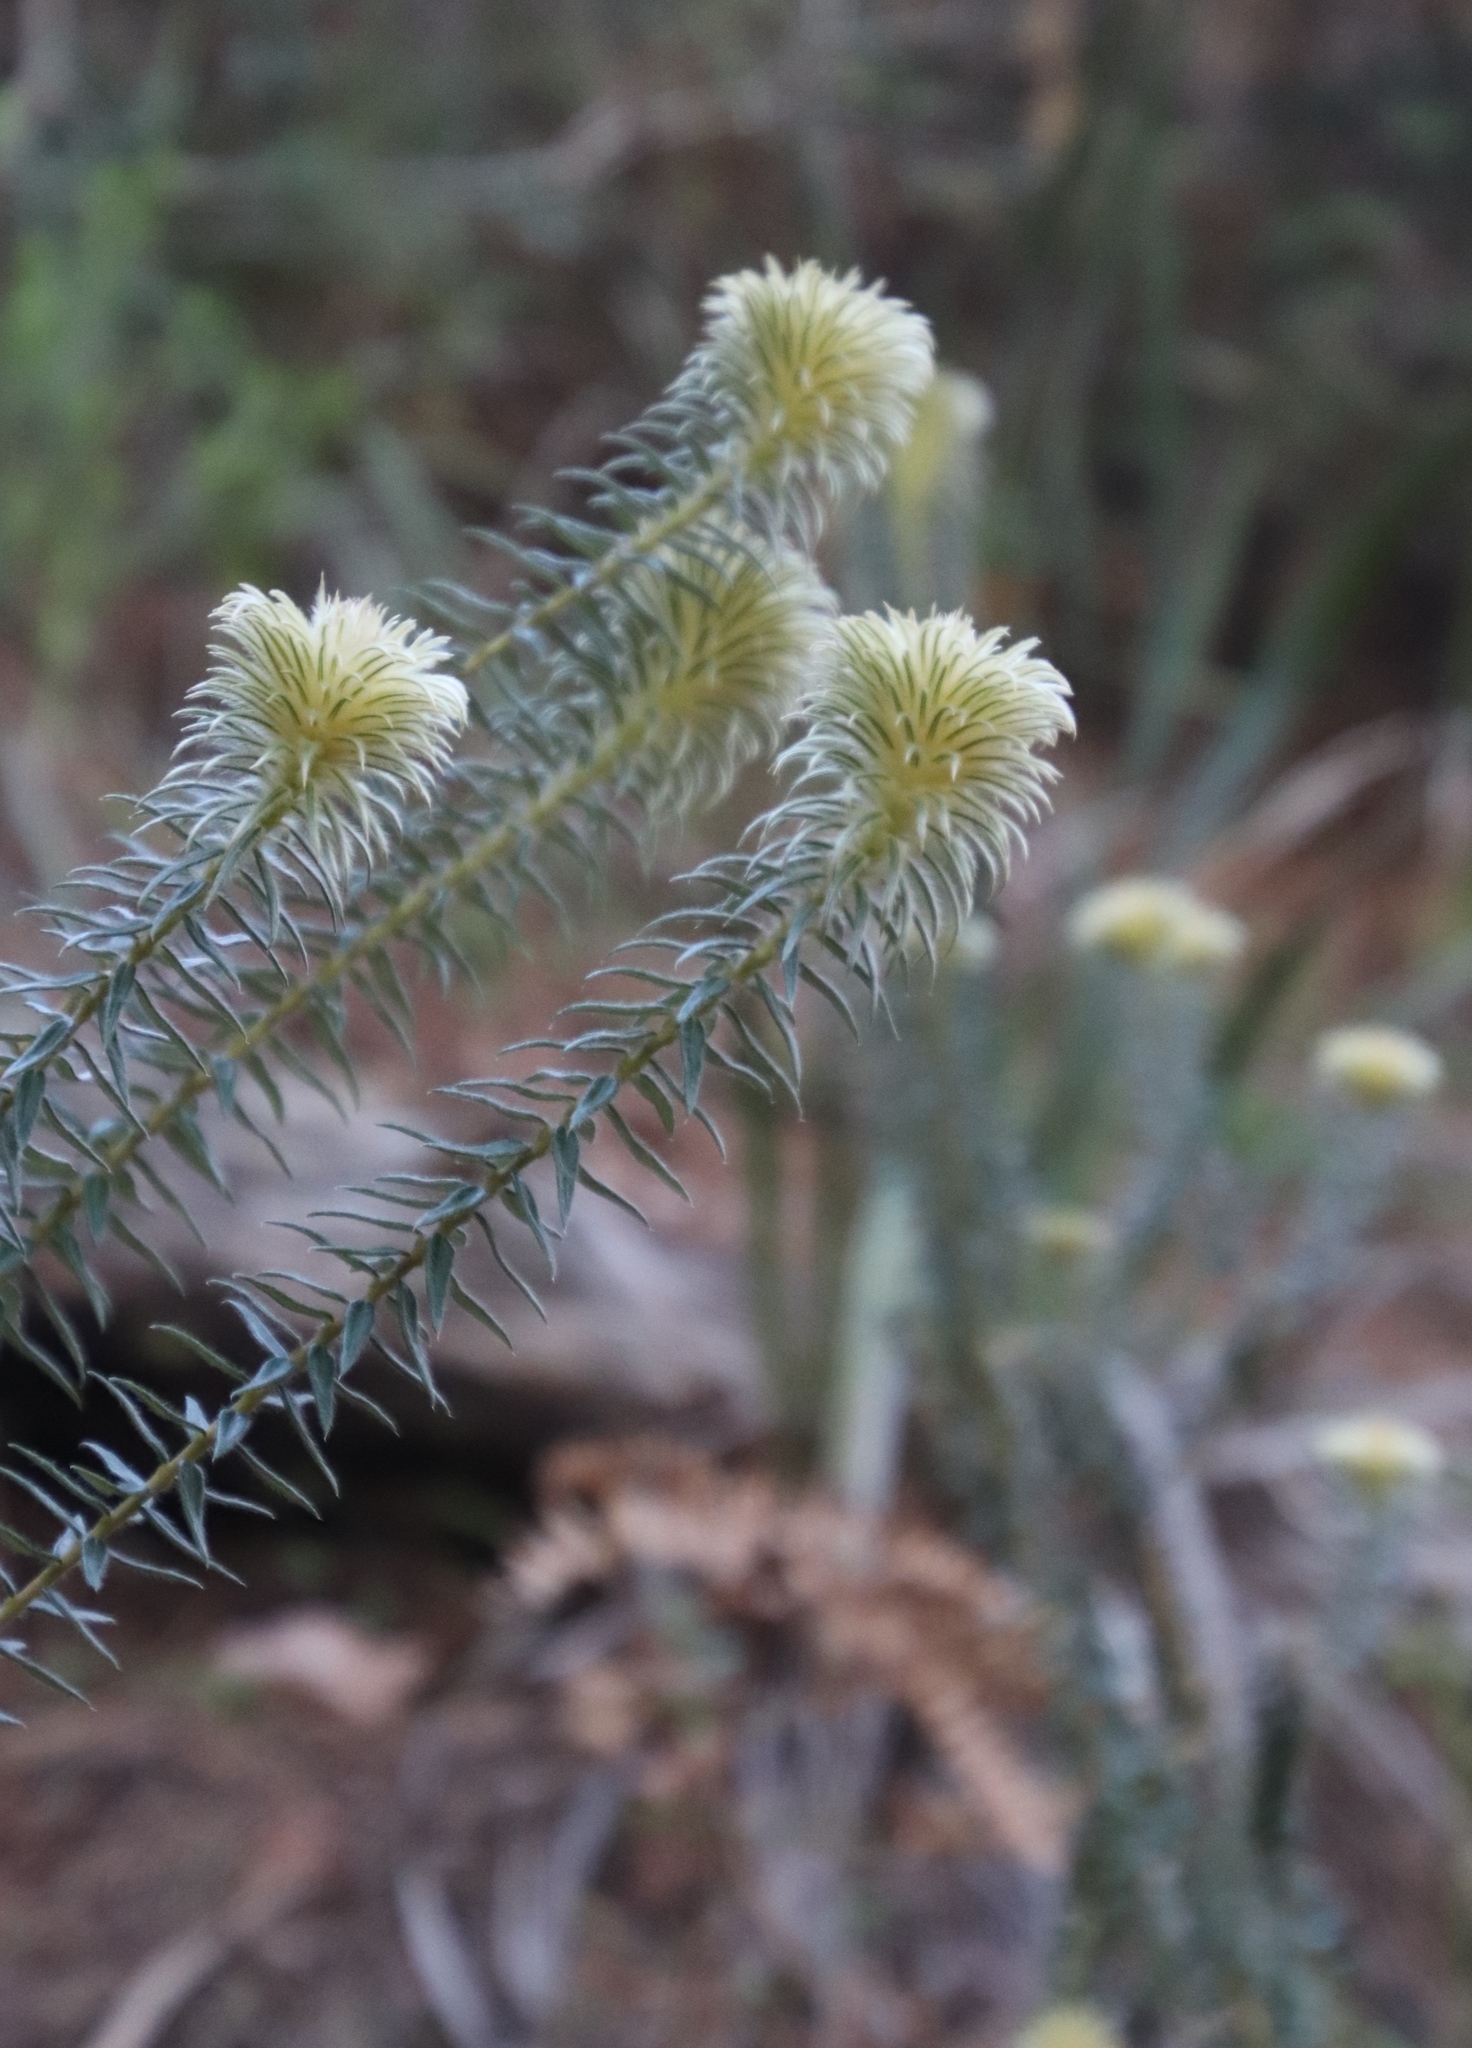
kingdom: Plantae
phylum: Tracheophyta
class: Magnoliopsida
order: Rosales
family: Rhamnaceae
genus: Phylica
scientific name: Phylica pubescens
